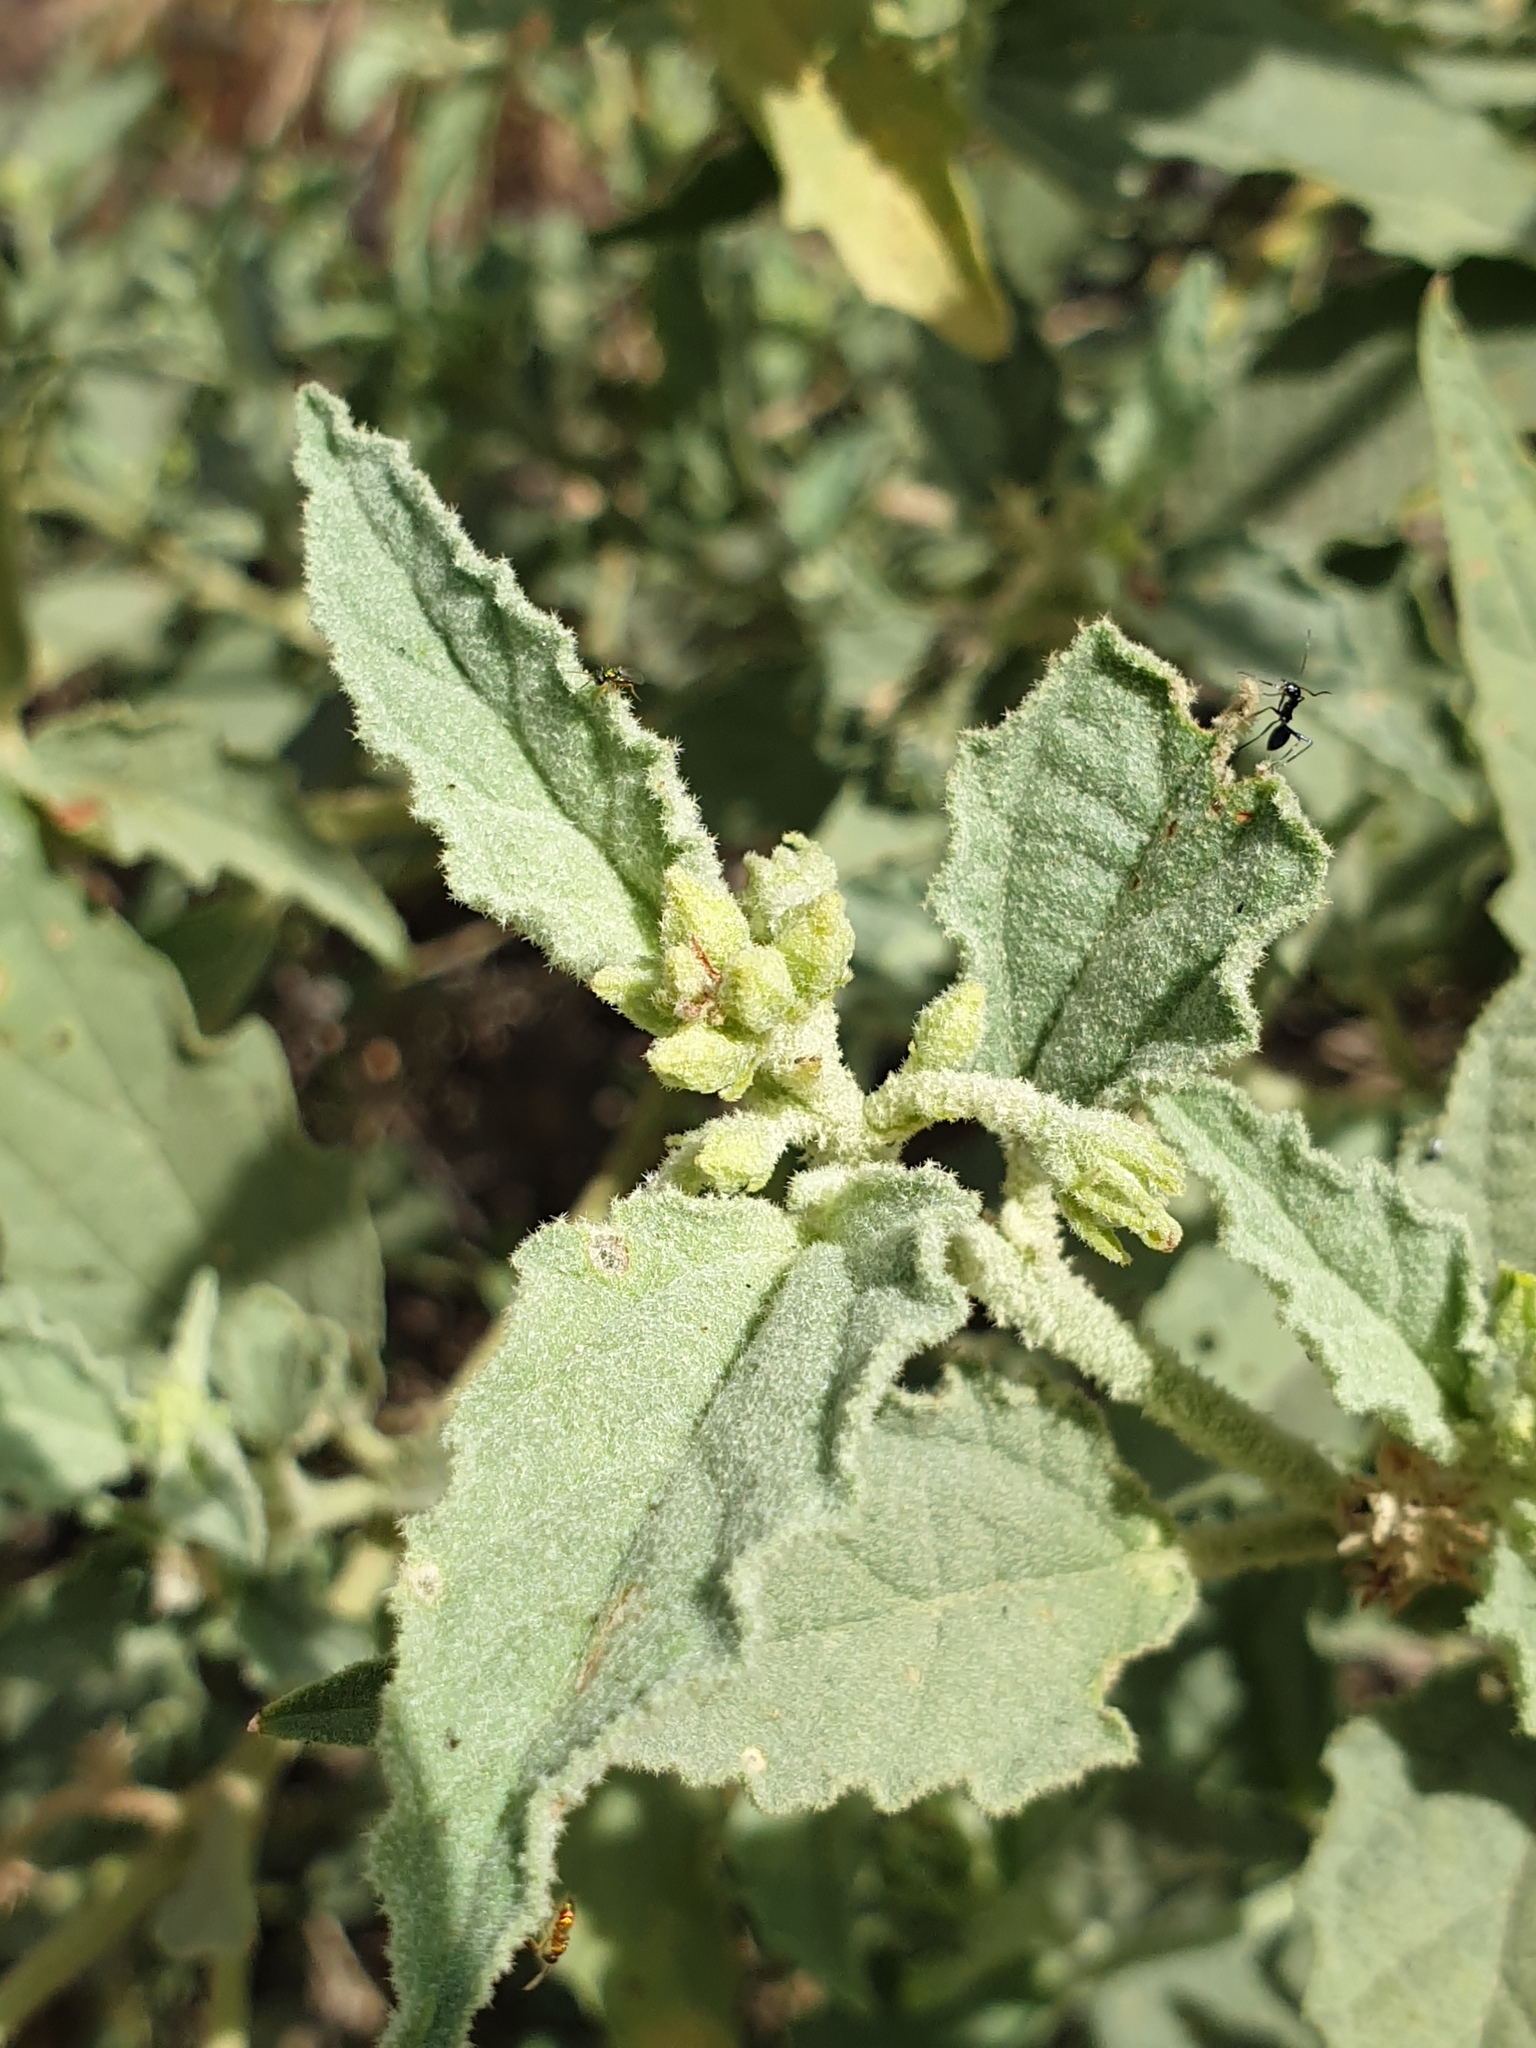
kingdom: Plantae
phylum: Tracheophyta
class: Magnoliopsida
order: Malpighiales
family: Euphorbiaceae
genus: Chrozophora
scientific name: Chrozophora oblongifolia
